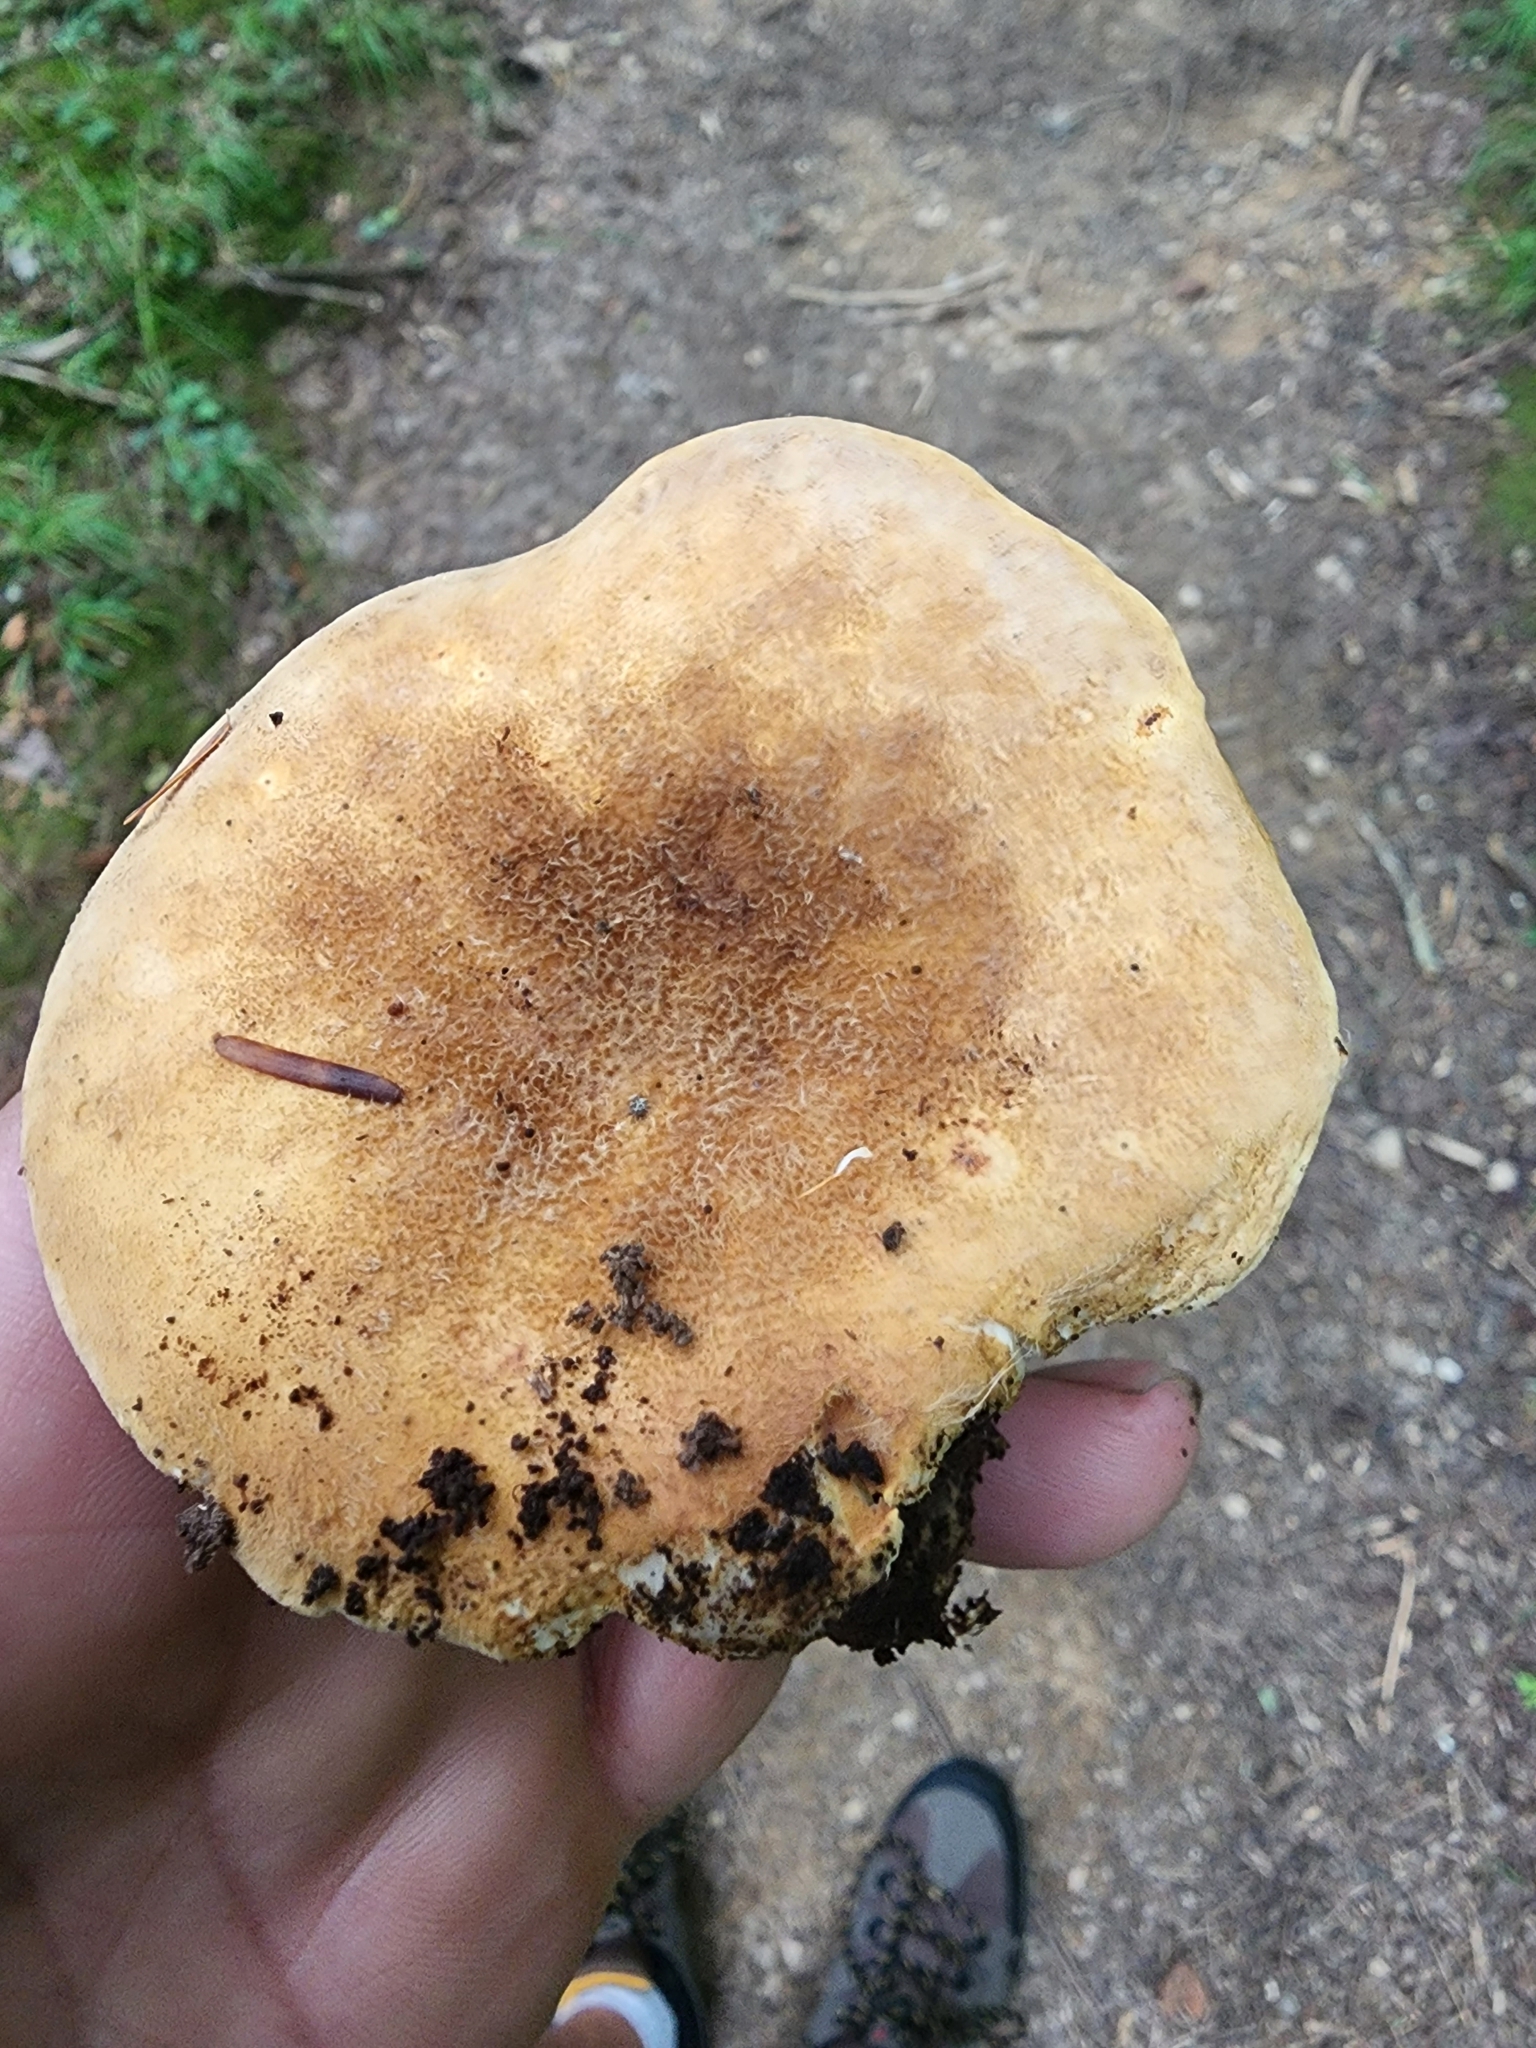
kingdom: Fungi
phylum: Basidiomycota
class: Agaricomycetes
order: Boletales
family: Tapinellaceae
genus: Tapinella
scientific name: Tapinella atrotomentosa
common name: Velvet rollrim
